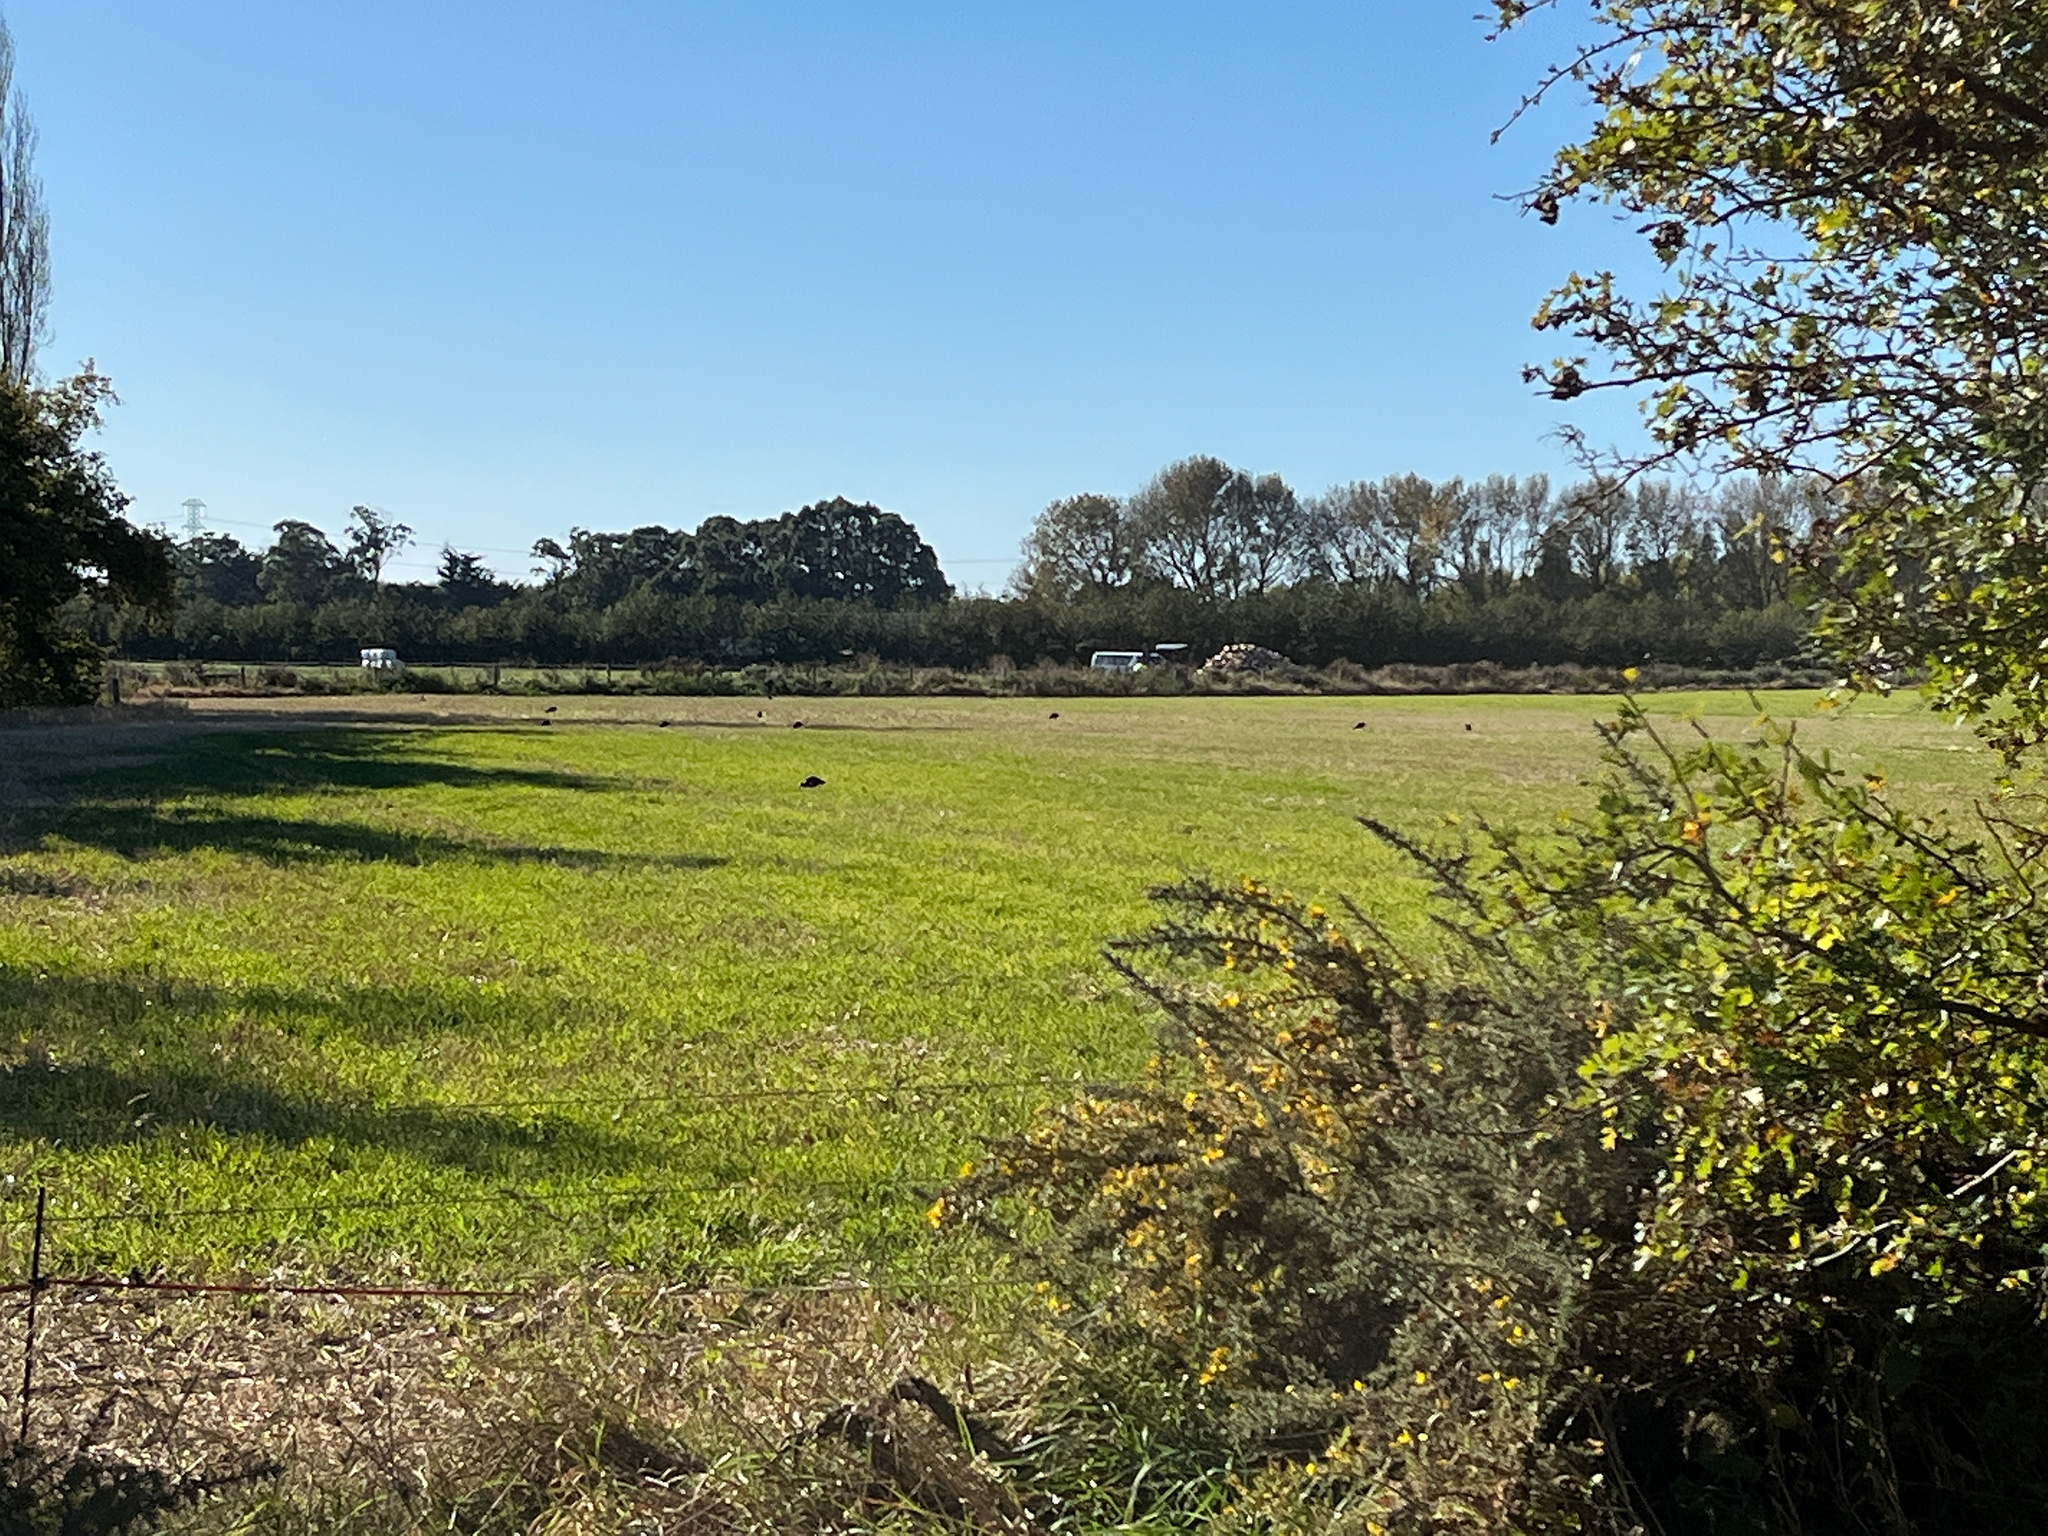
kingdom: Animalia
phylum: Chordata
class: Aves
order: Gruiformes
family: Rallidae
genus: Porphyrio
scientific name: Porphyrio melanotus
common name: Australasian swamphen
